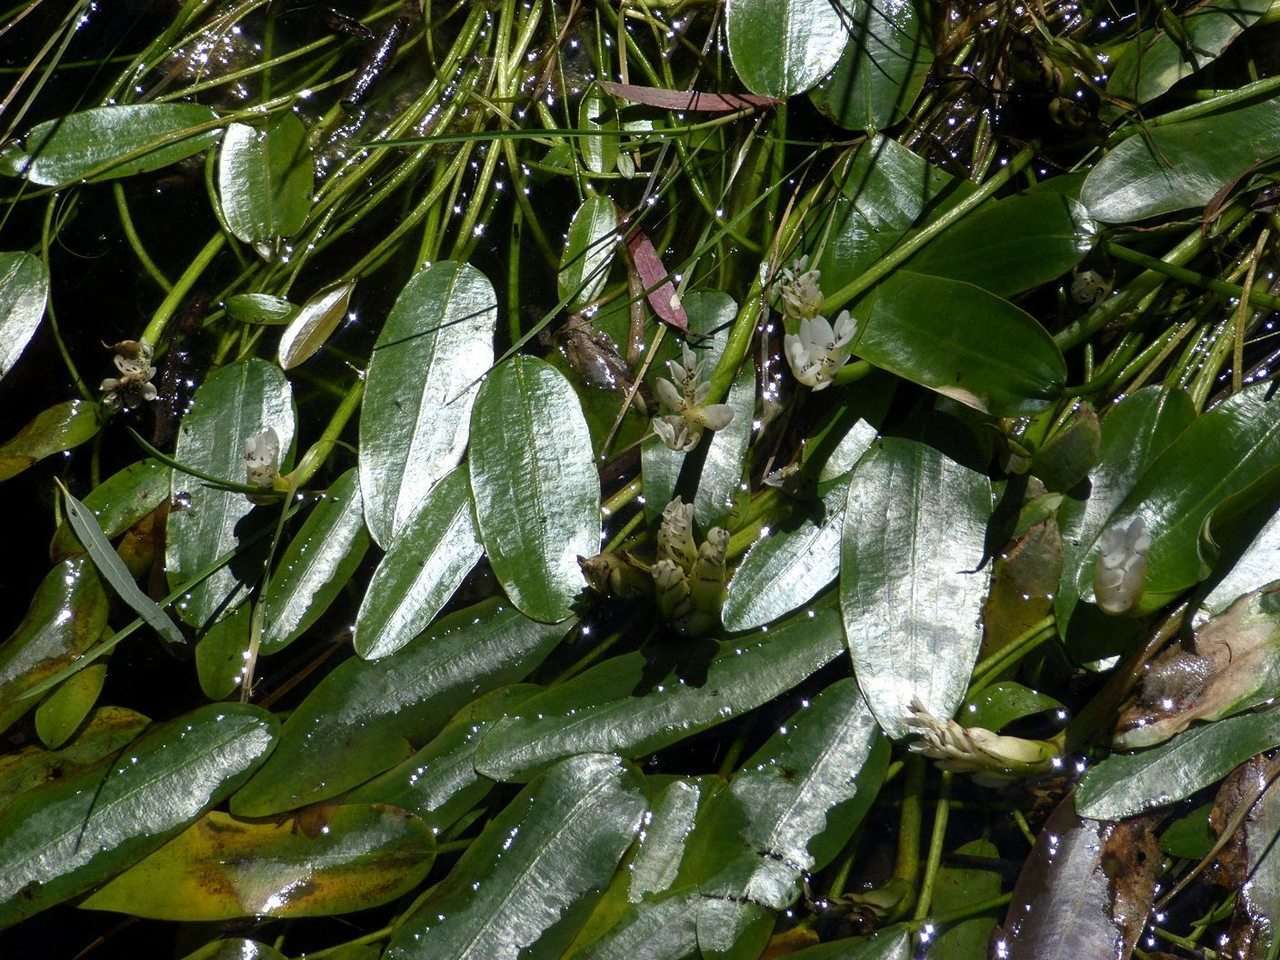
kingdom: Plantae
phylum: Tracheophyta
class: Liliopsida
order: Alismatales
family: Aponogetonaceae
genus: Aponogeton
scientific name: Aponogeton distachyos
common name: Cape-pondweed
